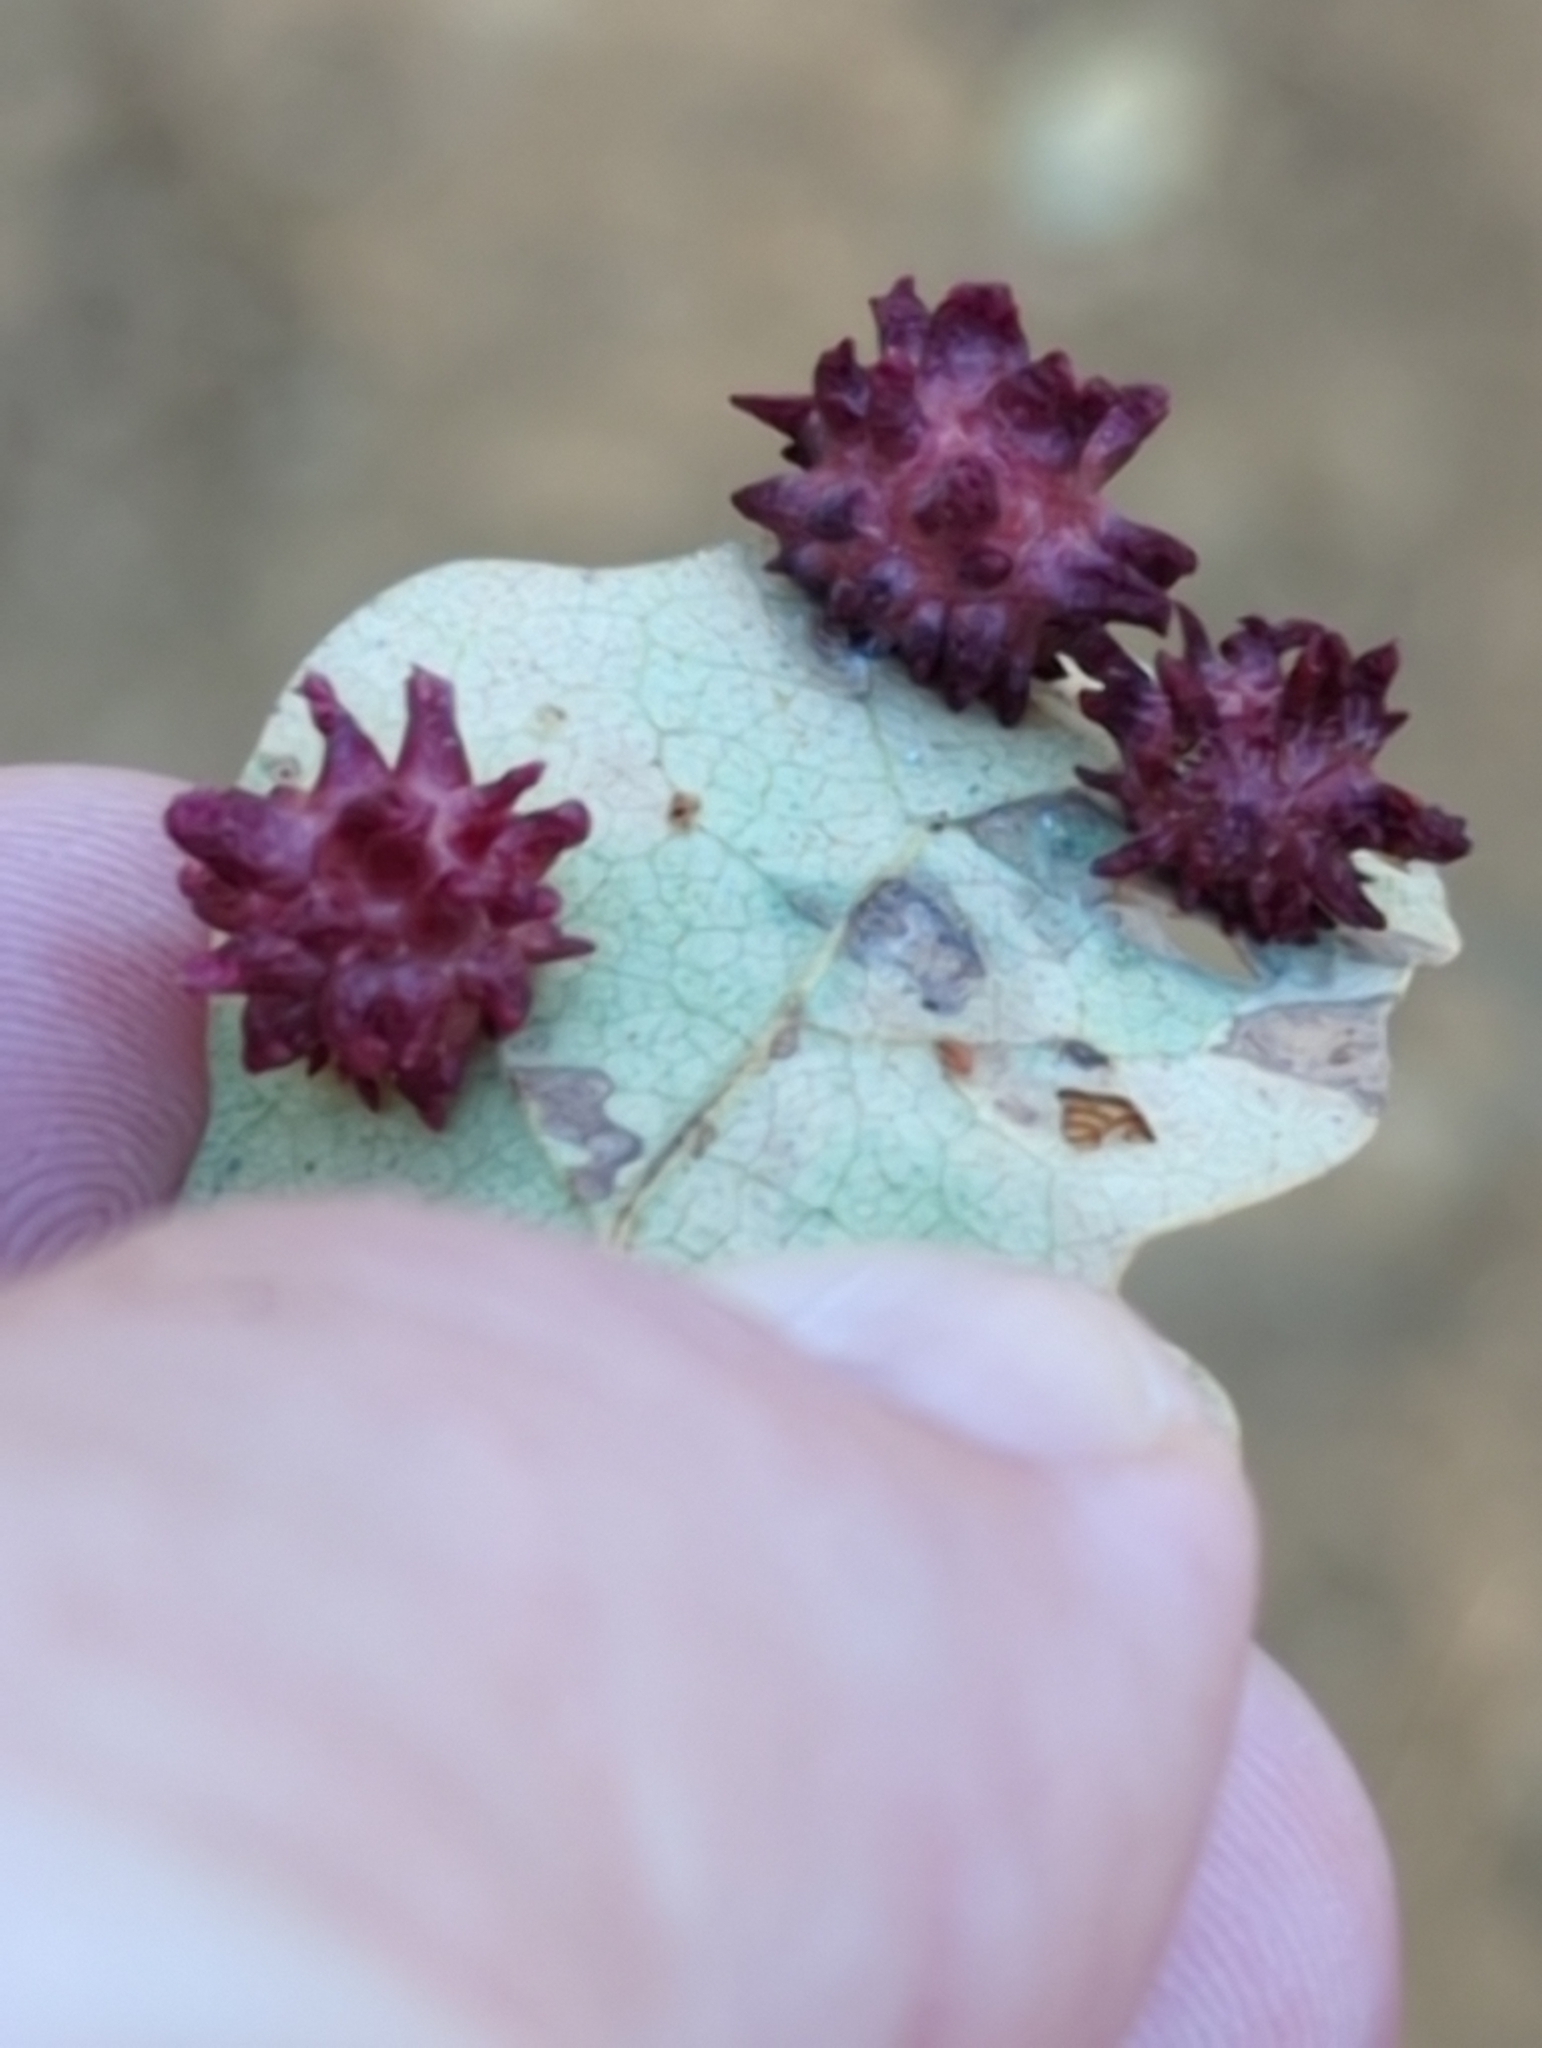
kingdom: Animalia
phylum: Arthropoda
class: Insecta
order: Hymenoptera
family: Cynipidae
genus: Cynips
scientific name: Cynips
